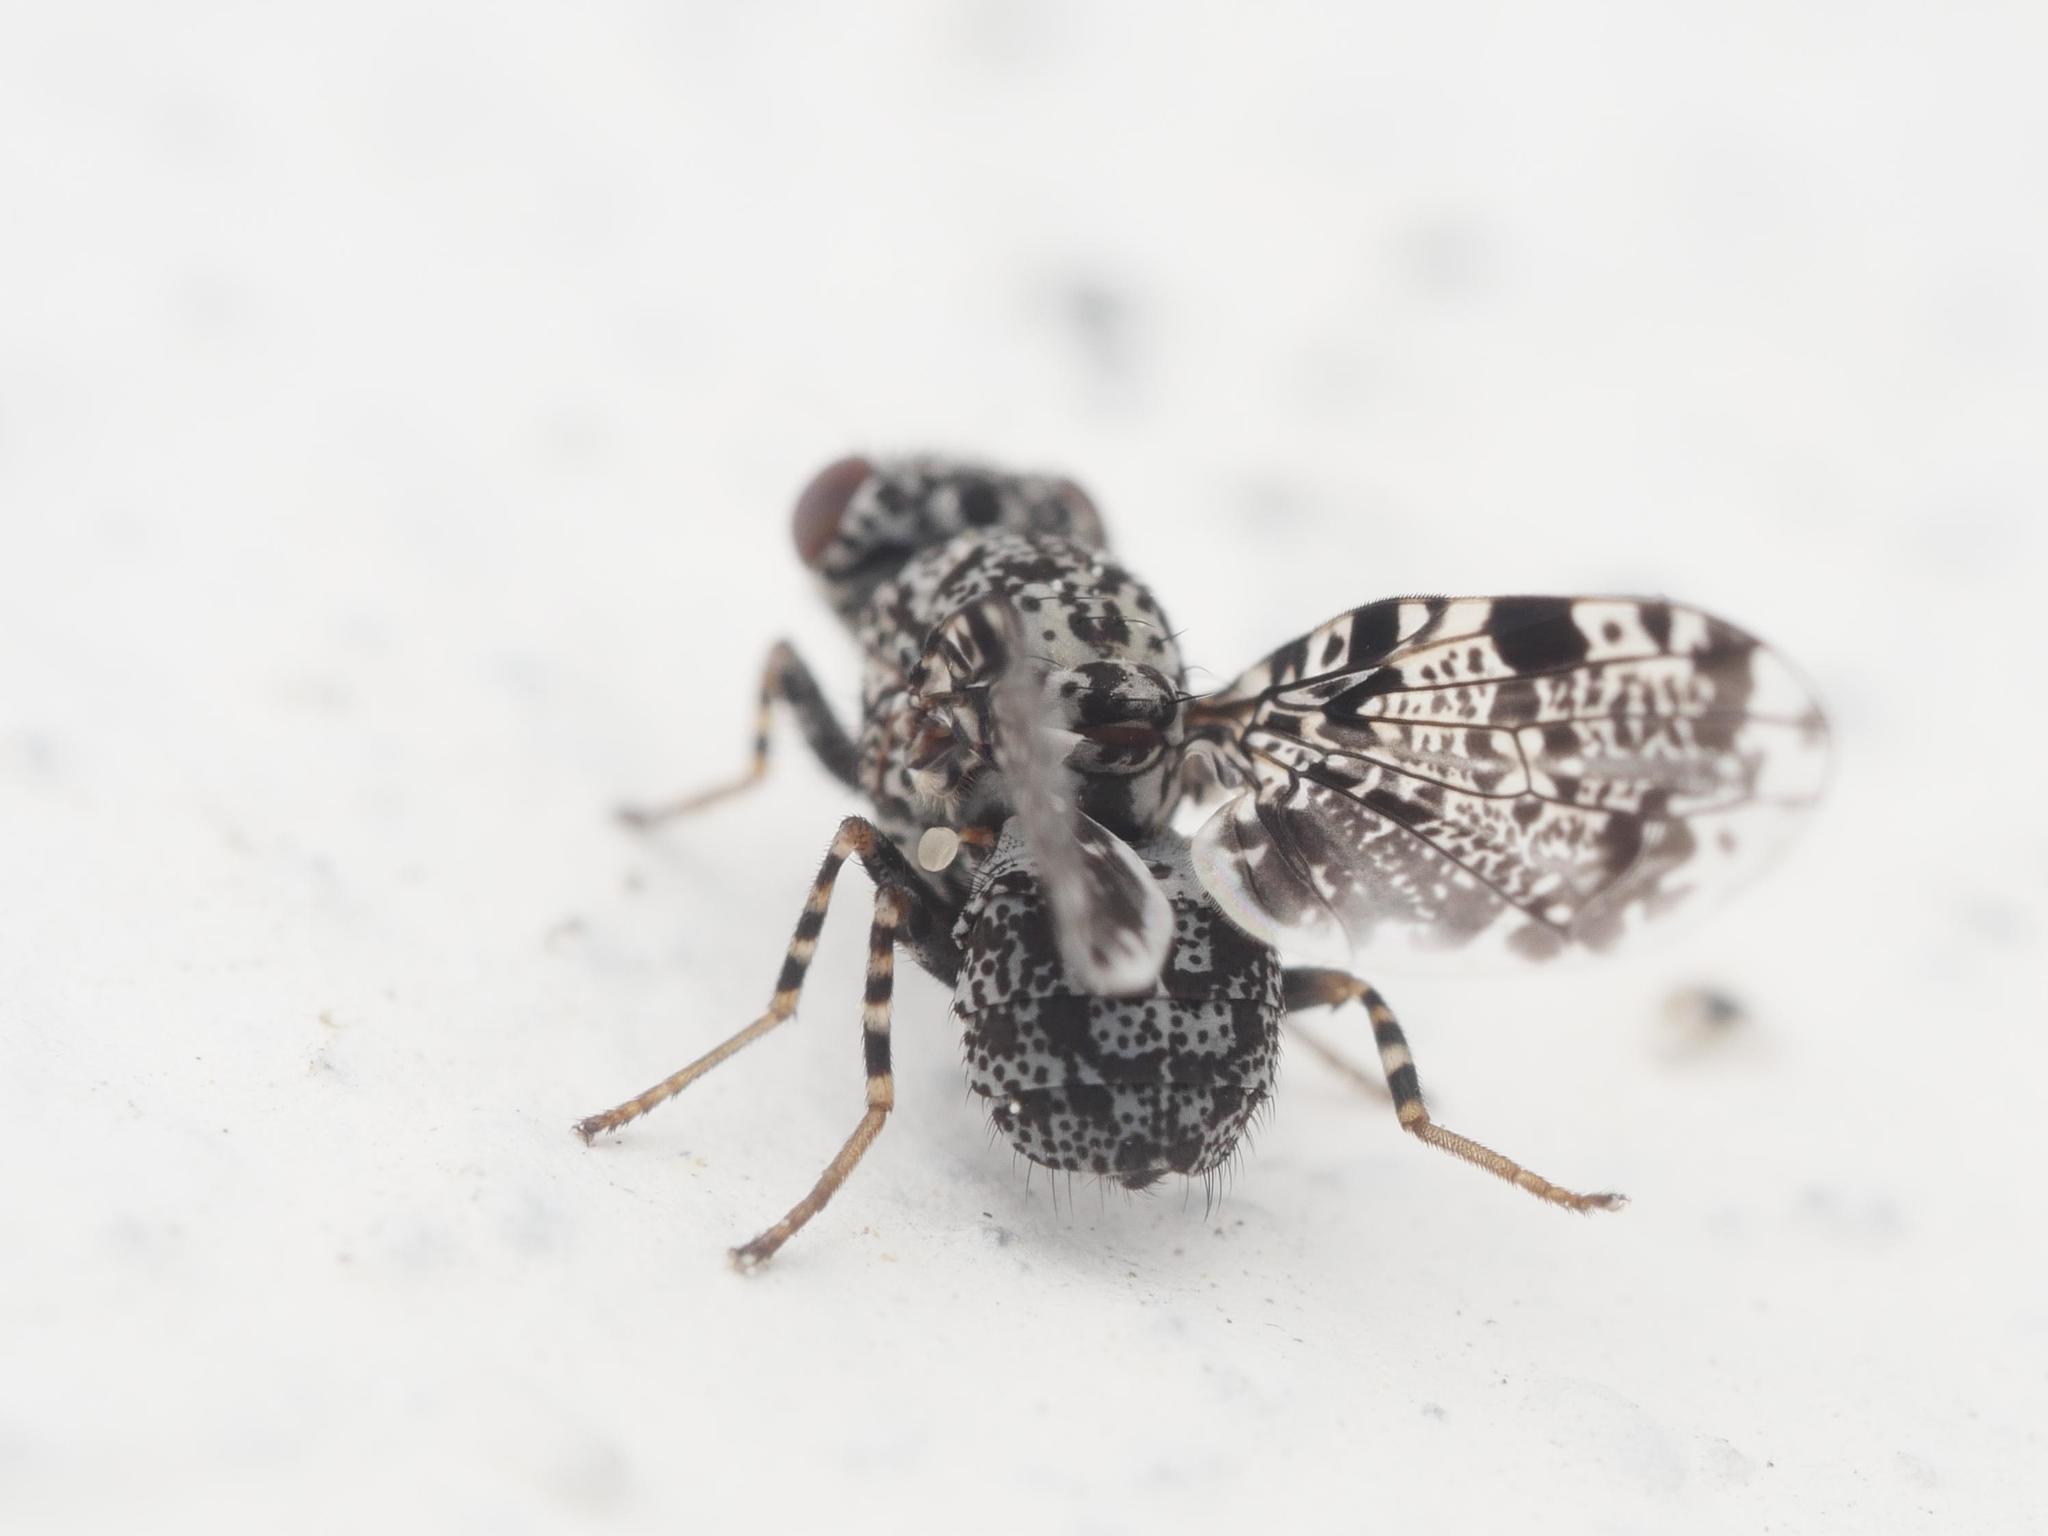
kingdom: Animalia
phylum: Arthropoda
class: Insecta
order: Diptera
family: Ulidiidae
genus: Callopistromyia
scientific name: Callopistromyia annulipes
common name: Peacock fly
